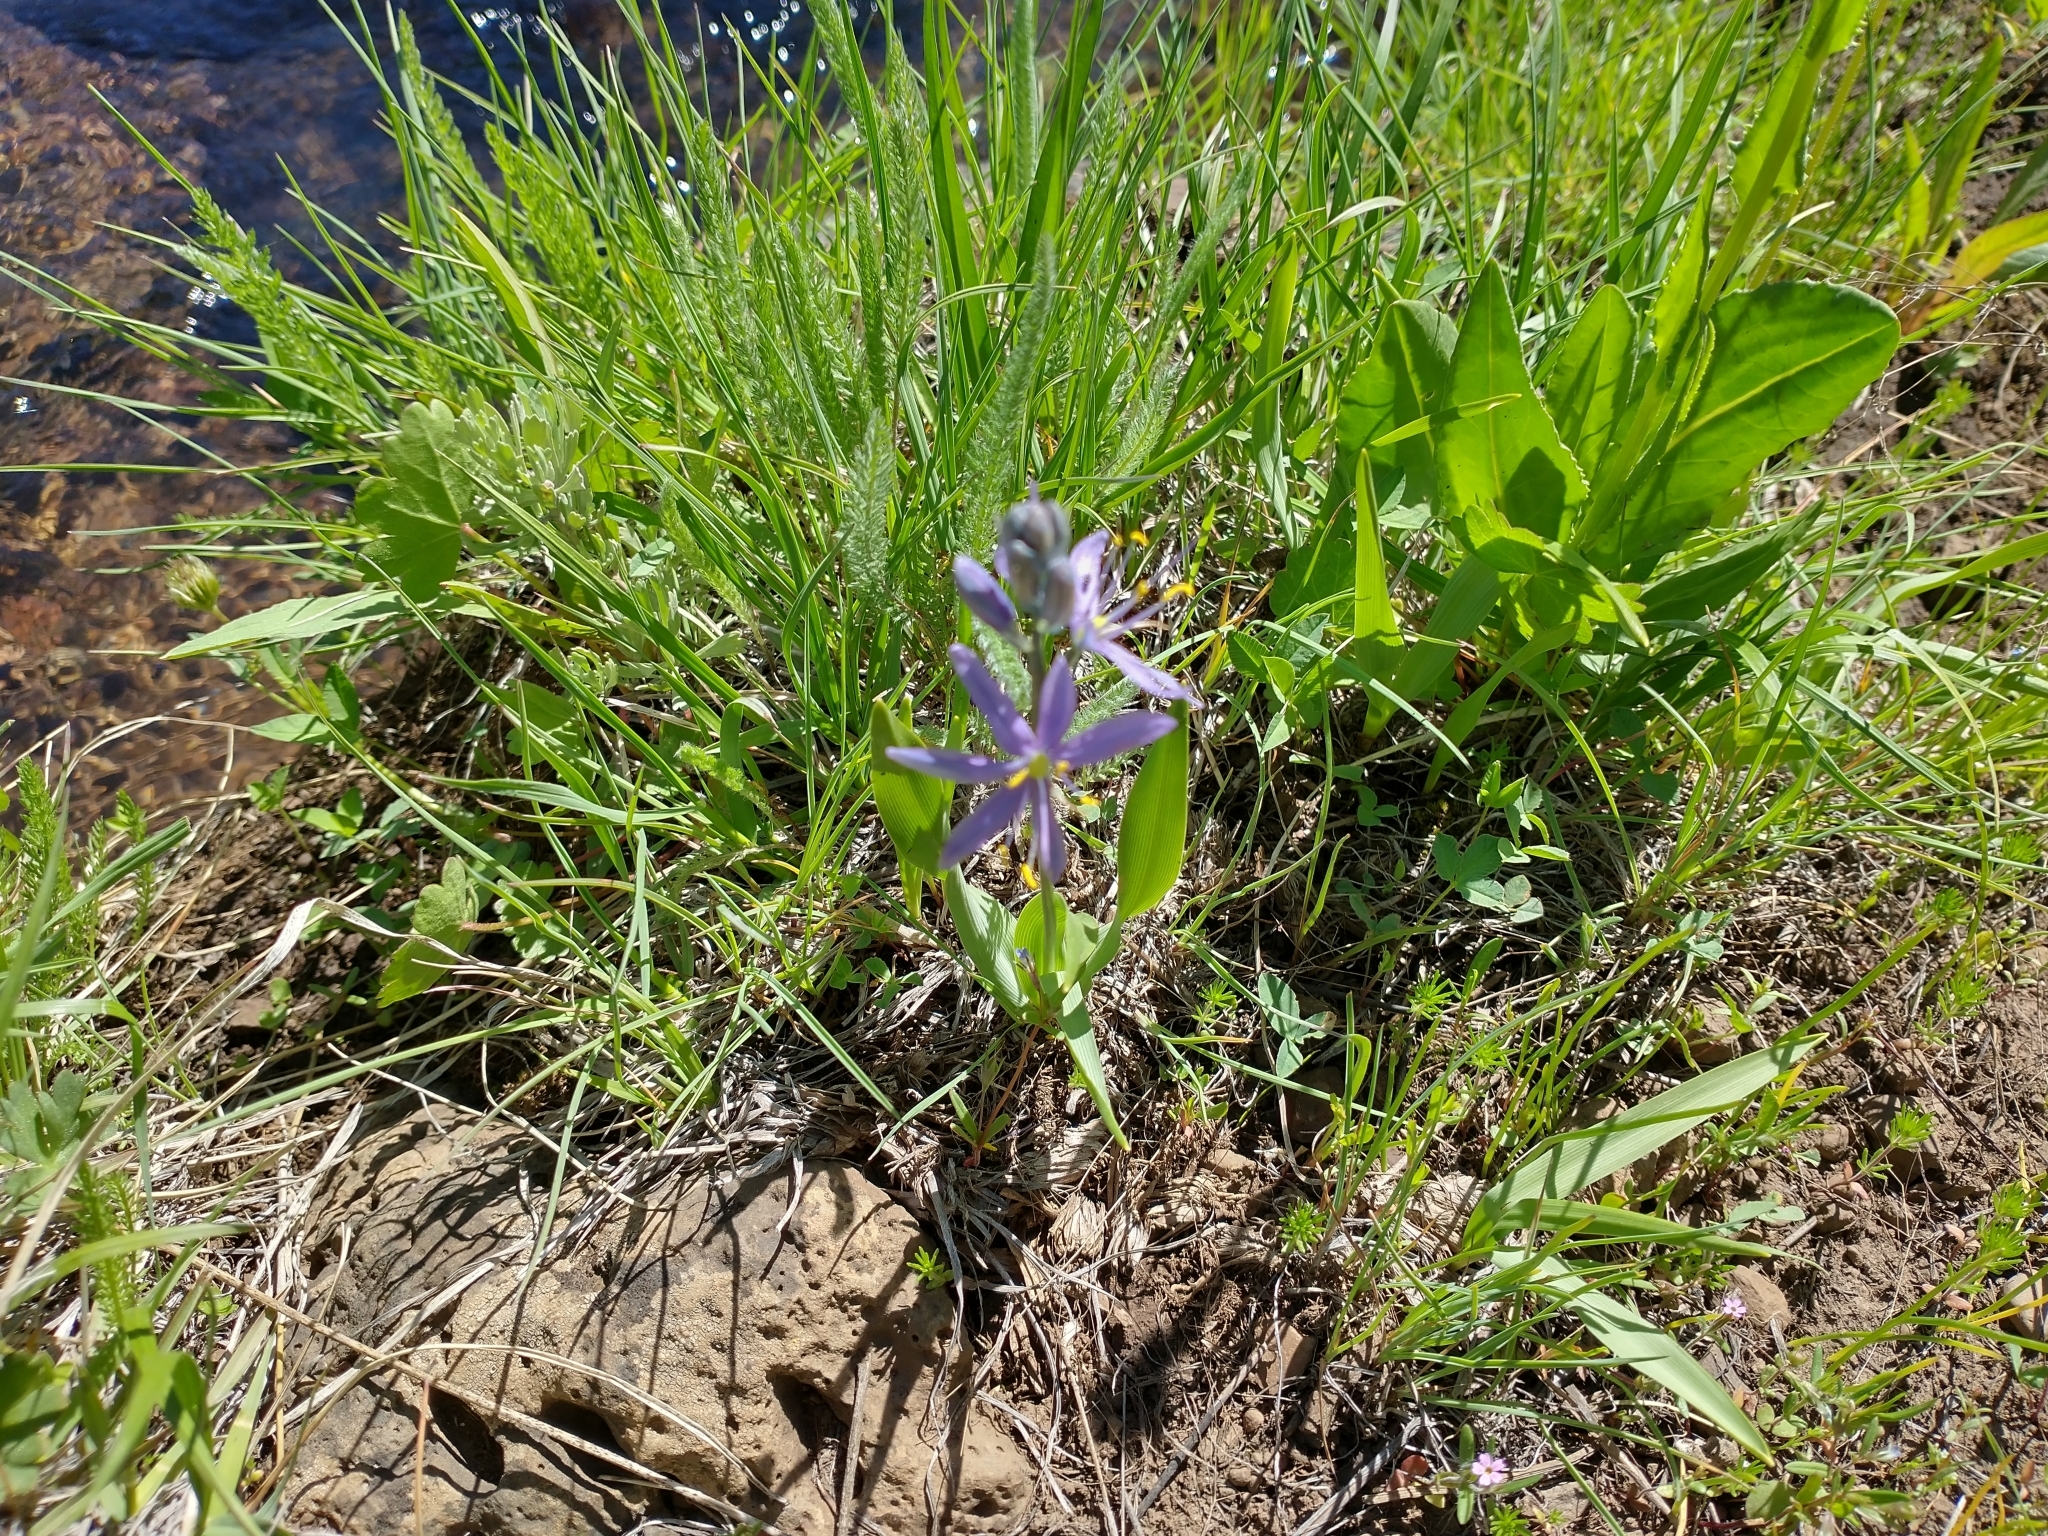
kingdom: Plantae
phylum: Tracheophyta
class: Liliopsida
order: Asparagales
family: Asparagaceae
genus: Camassia
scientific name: Camassia quamash
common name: Common camas
